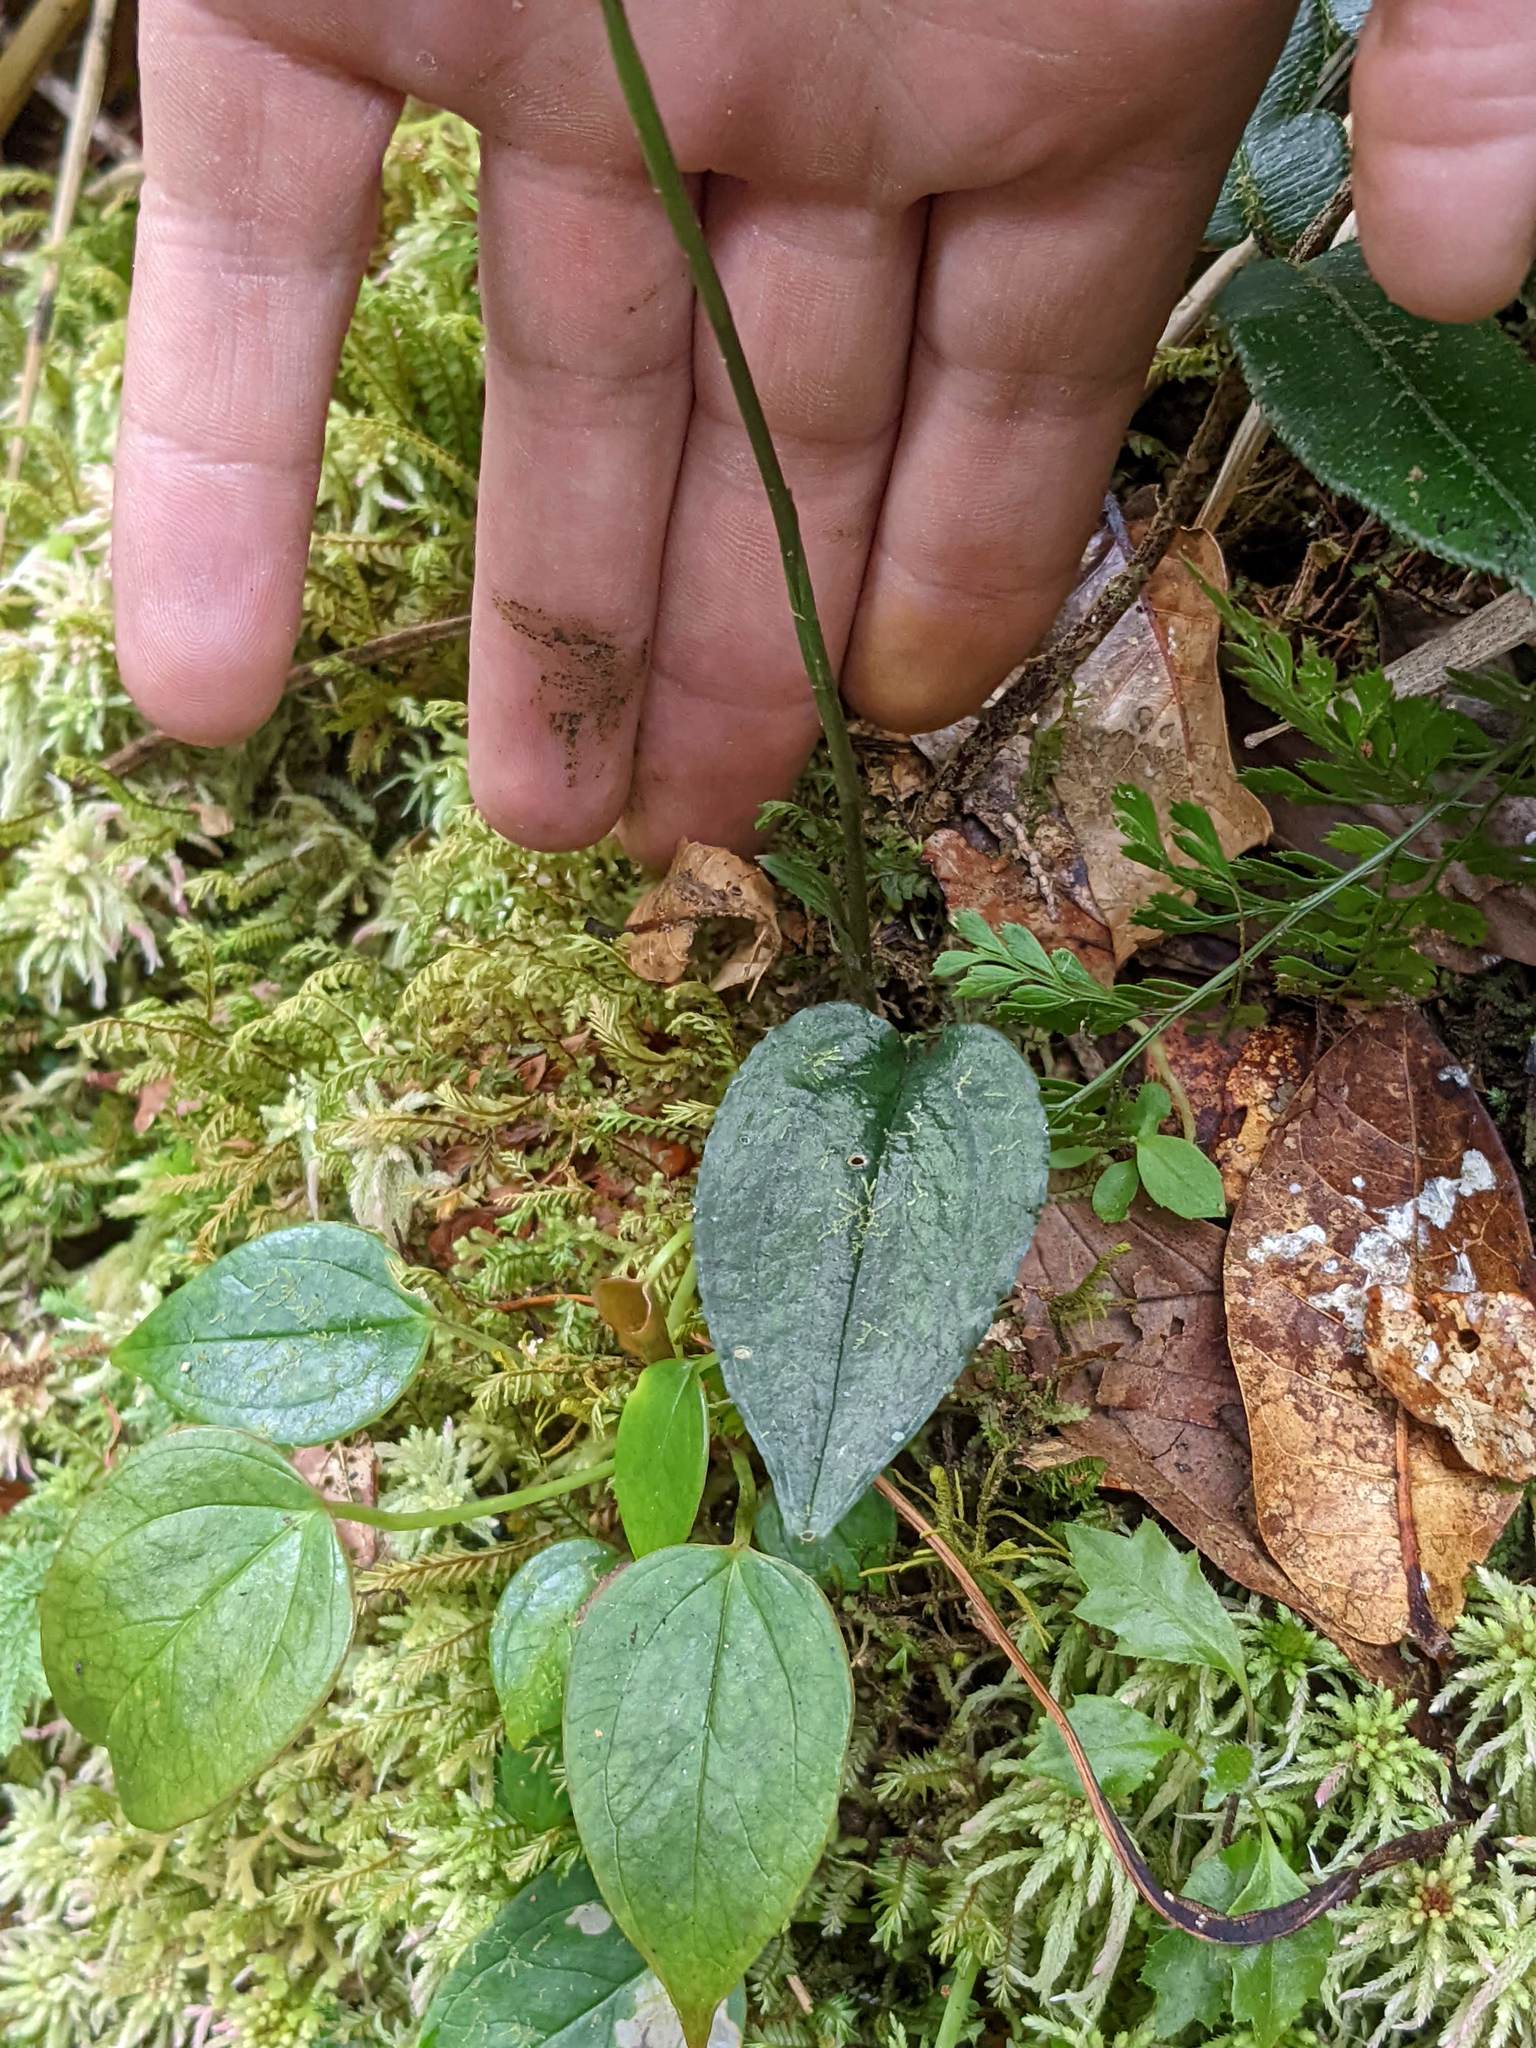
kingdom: Plantae
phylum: Tracheophyta
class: Liliopsida
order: Asparagales
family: Orchidaceae
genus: Cranichis
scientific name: Cranichis diphylla
